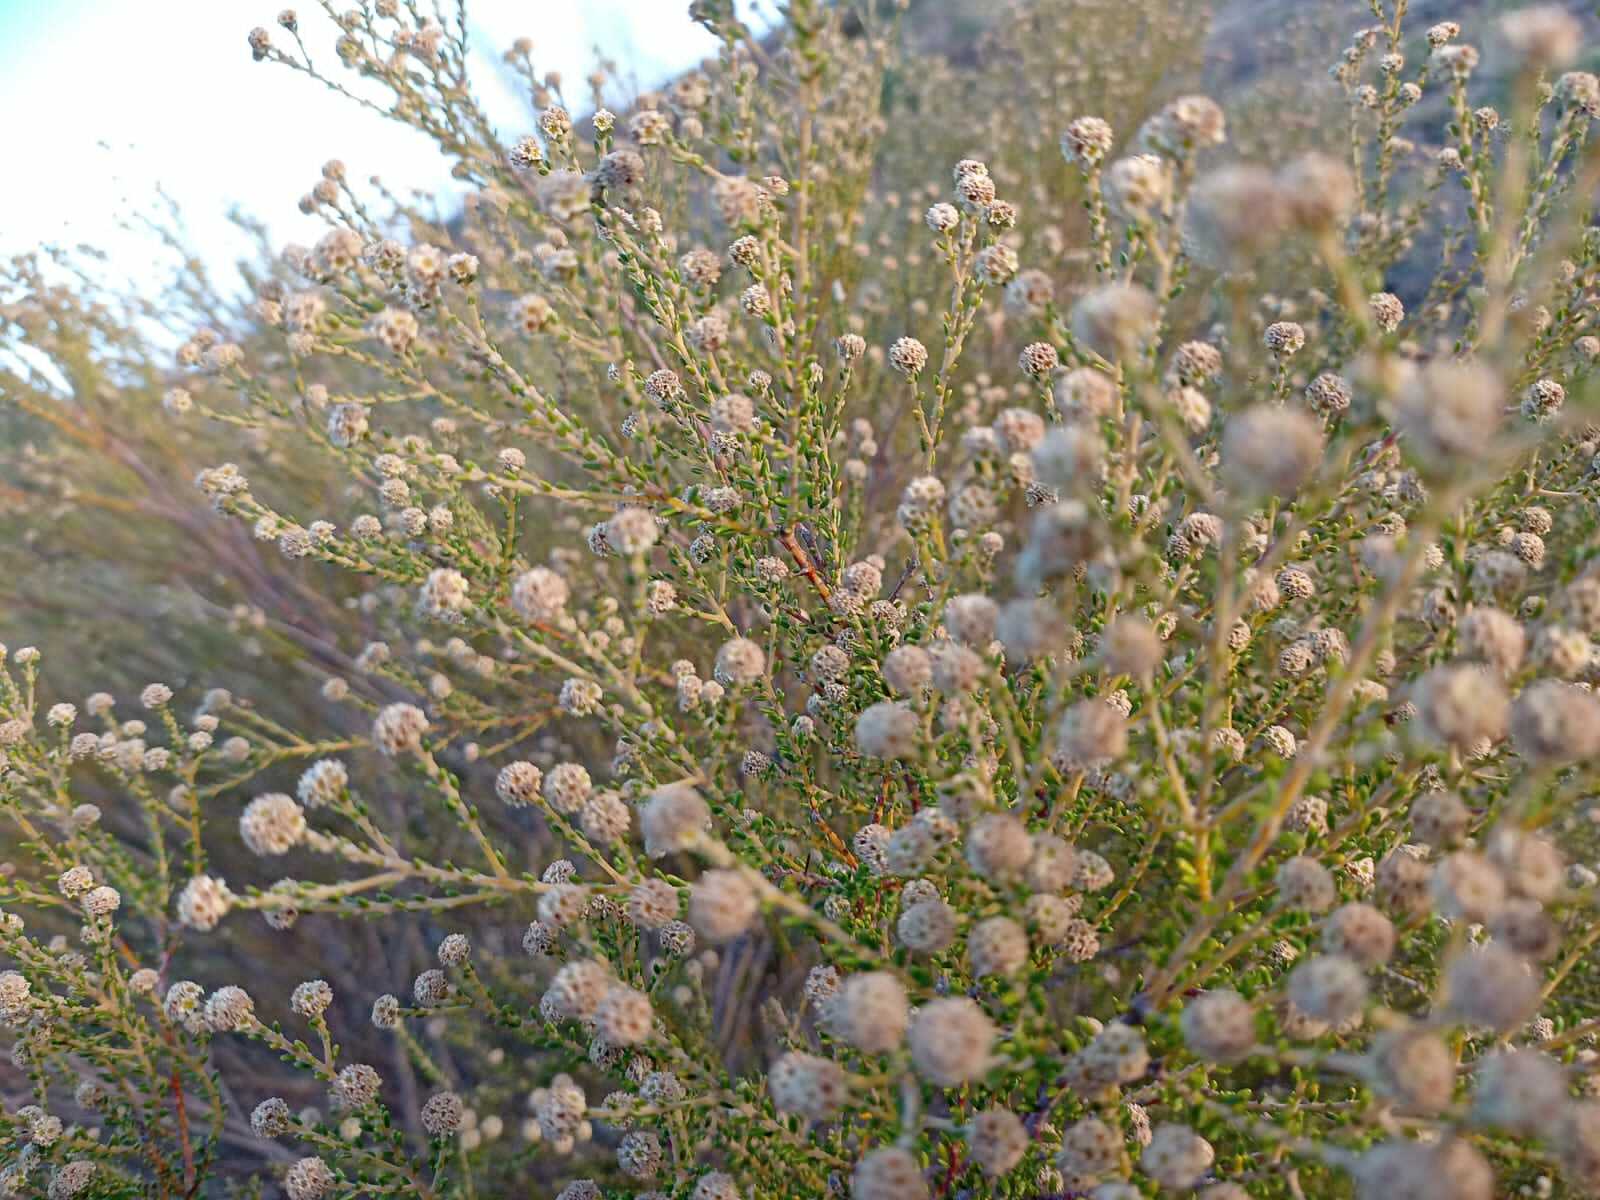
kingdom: Plantae
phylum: Tracheophyta
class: Magnoliopsida
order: Rosales
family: Rhamnaceae
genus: Phylica
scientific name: Phylica cephalantha
